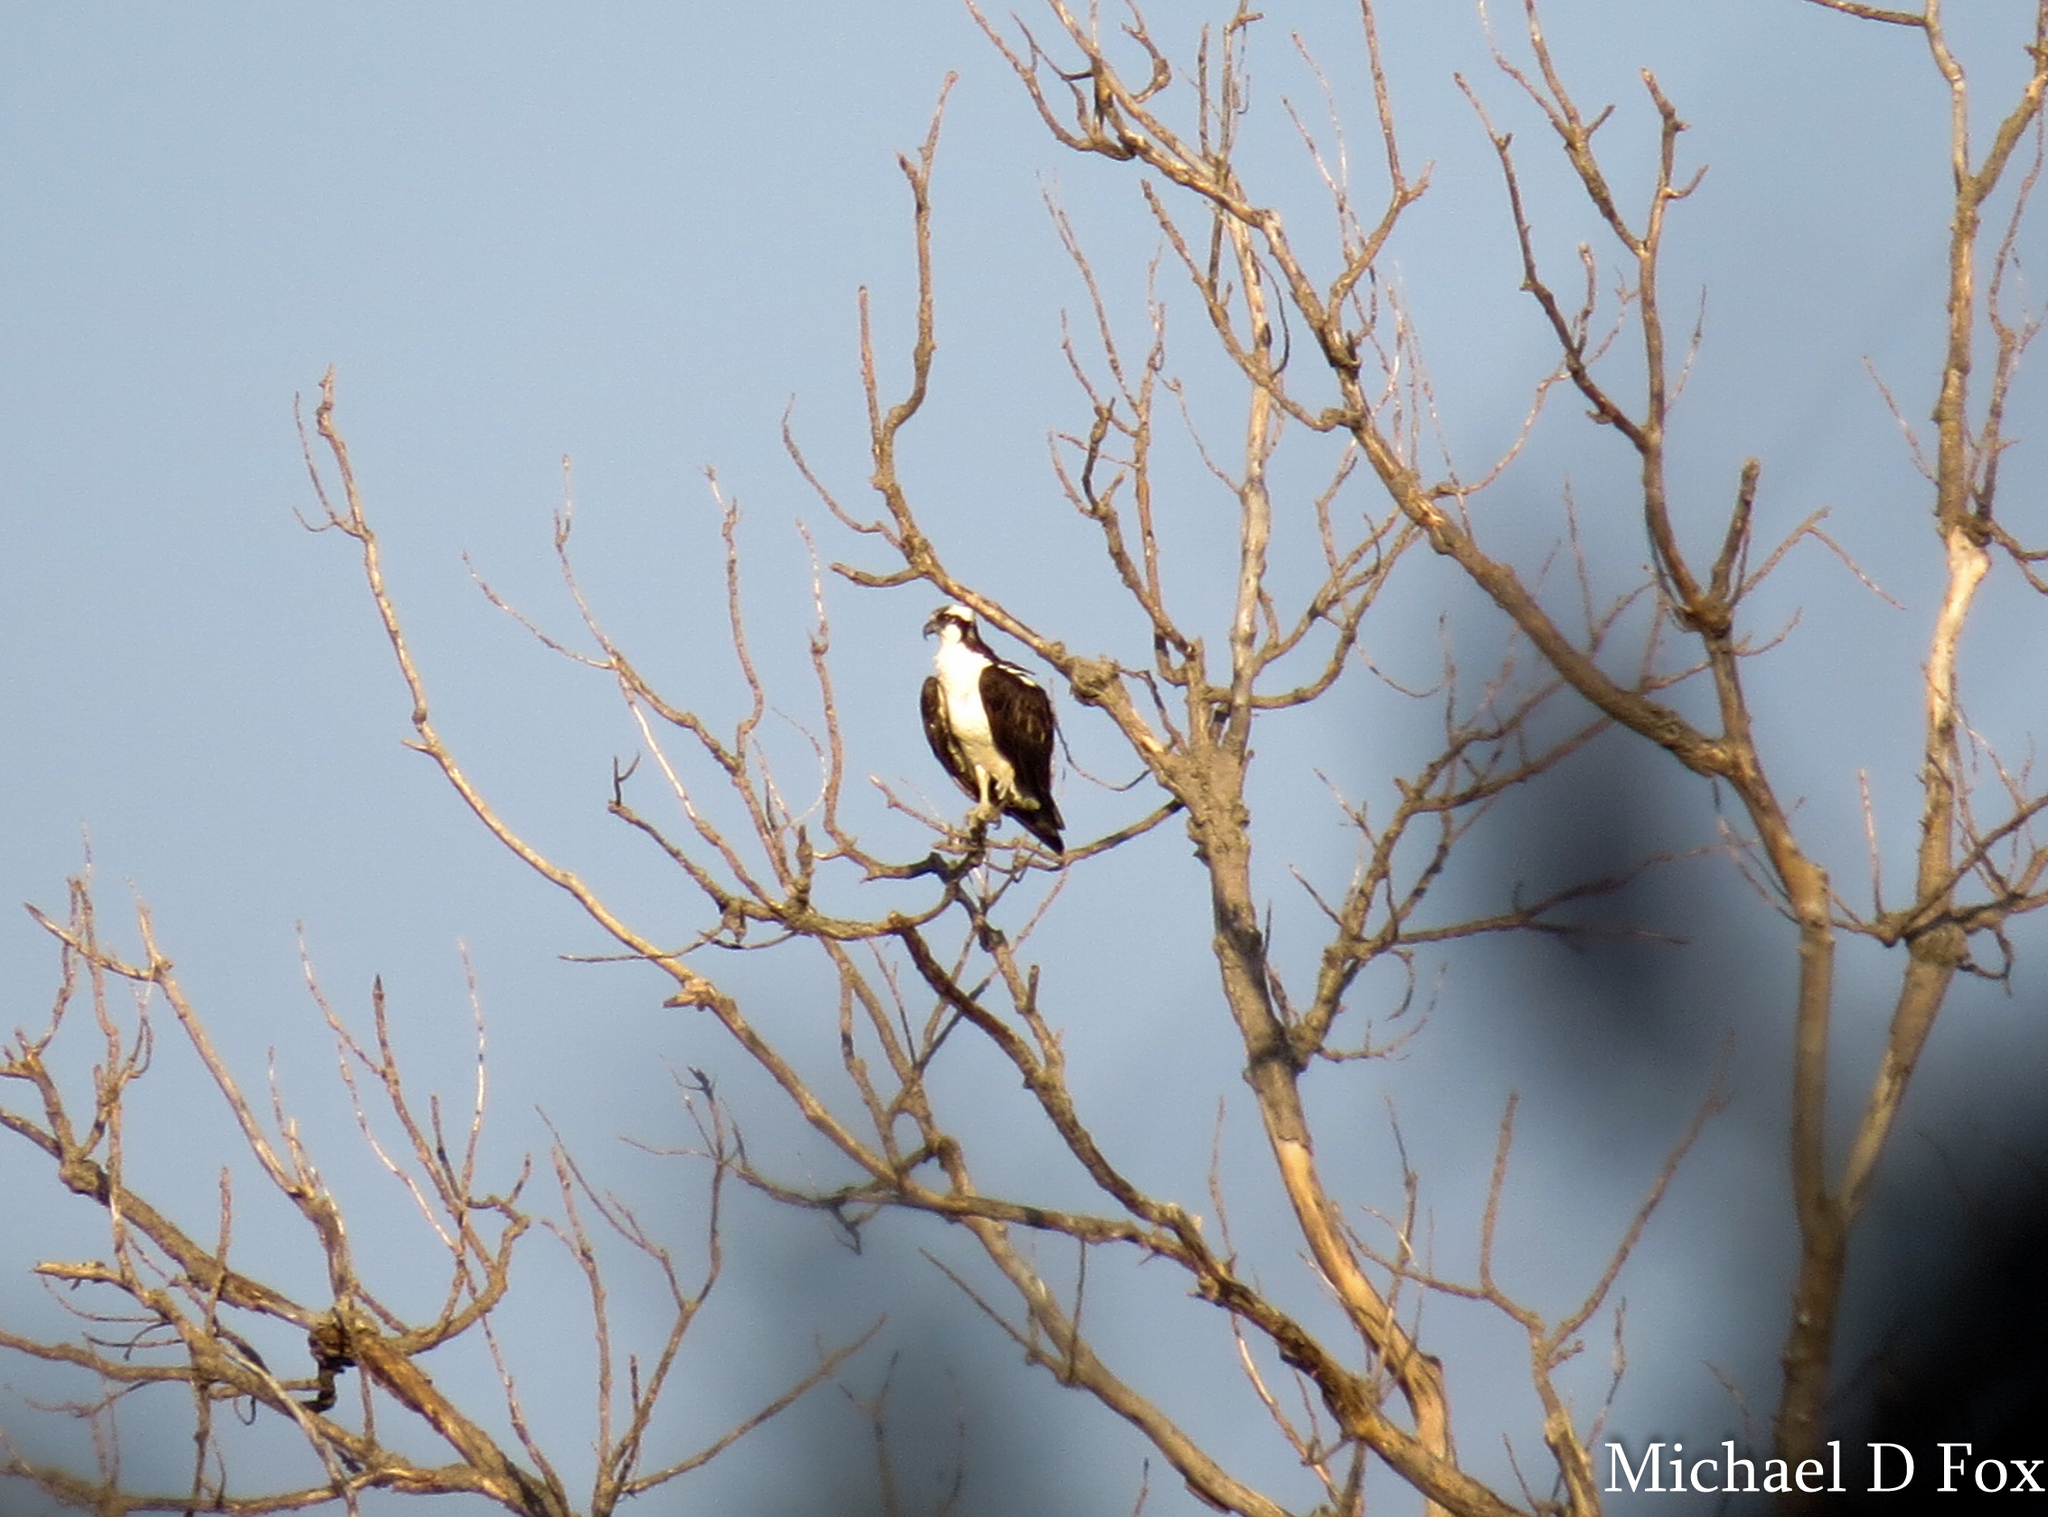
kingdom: Animalia
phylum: Chordata
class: Aves
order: Accipitriformes
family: Pandionidae
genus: Pandion
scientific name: Pandion haliaetus
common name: Osprey
